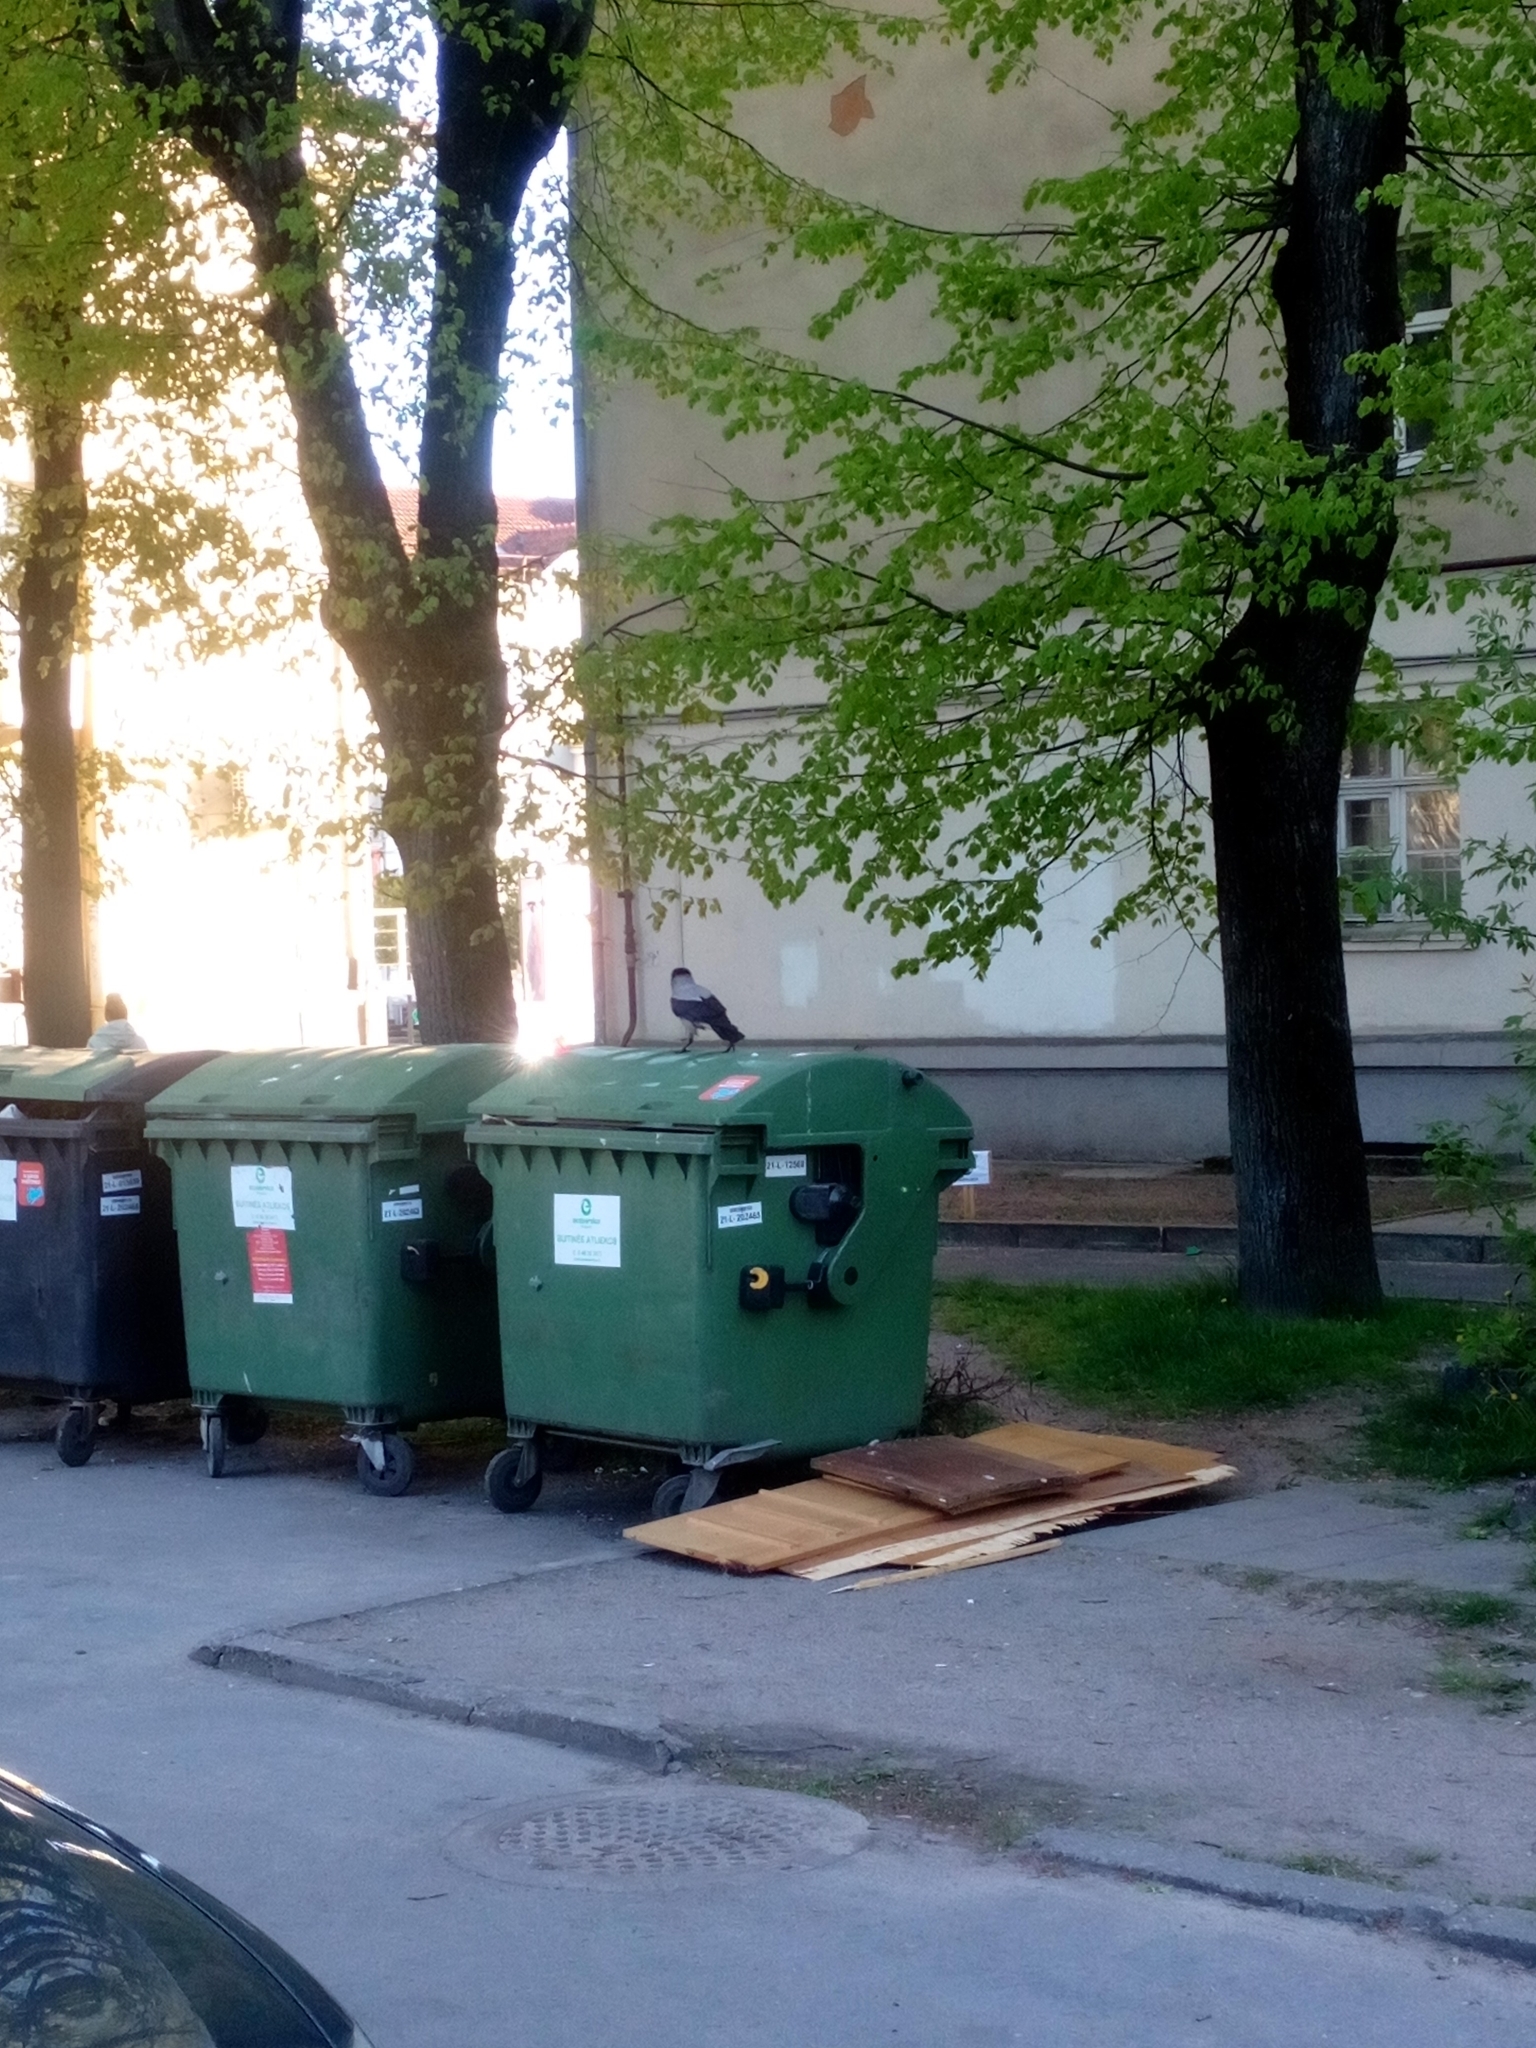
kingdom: Animalia
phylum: Chordata
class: Aves
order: Passeriformes
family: Corvidae
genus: Corvus
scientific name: Corvus cornix
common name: Hooded crow
